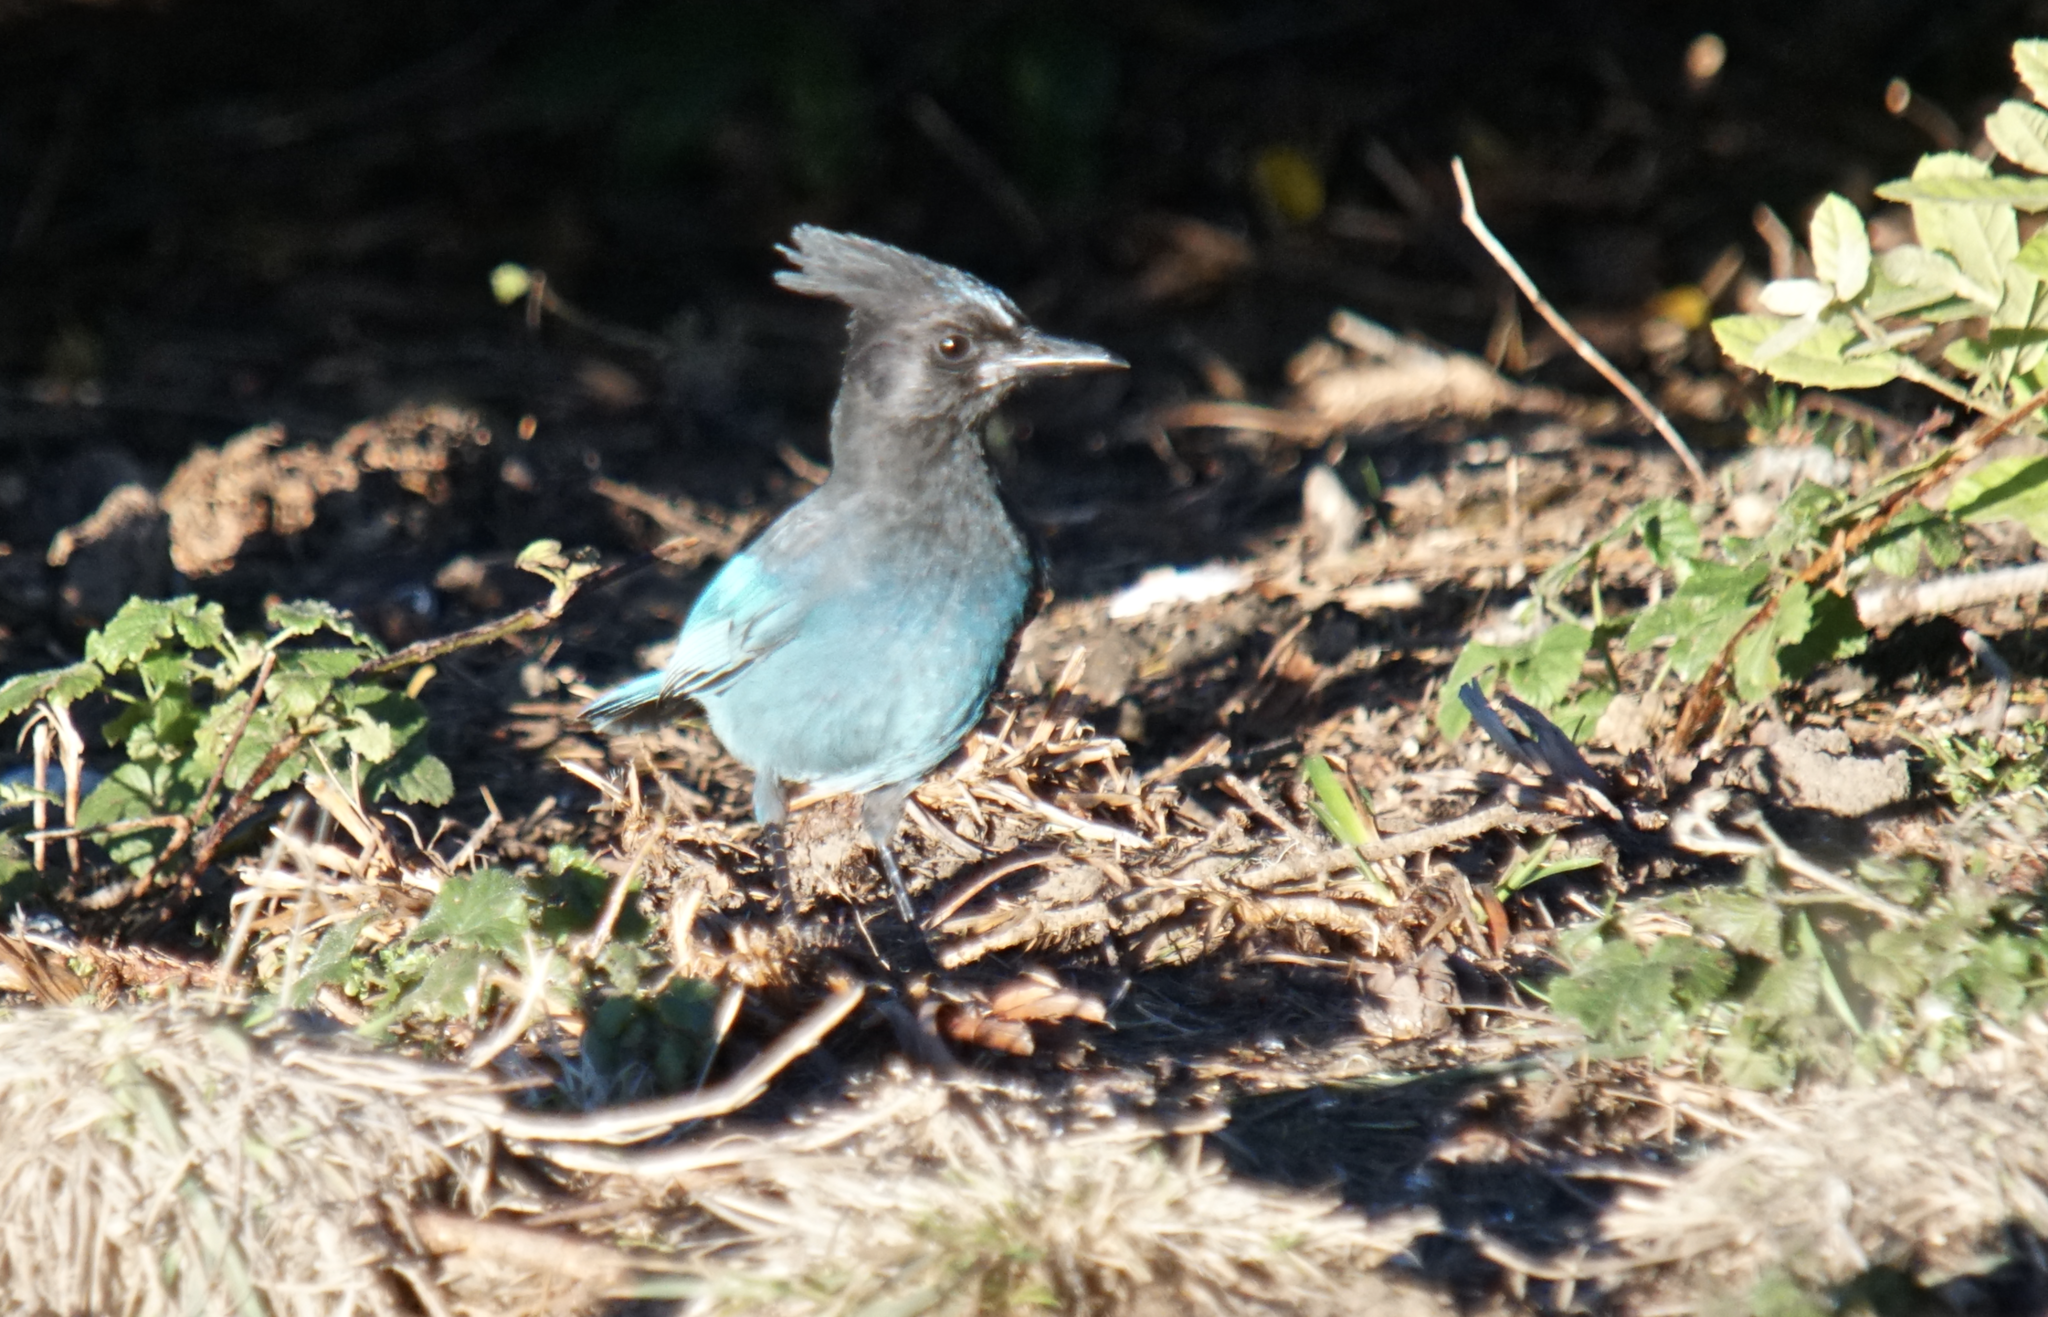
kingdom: Animalia
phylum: Chordata
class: Aves
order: Passeriformes
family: Corvidae
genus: Cyanocitta
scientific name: Cyanocitta stelleri
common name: Steller's jay
